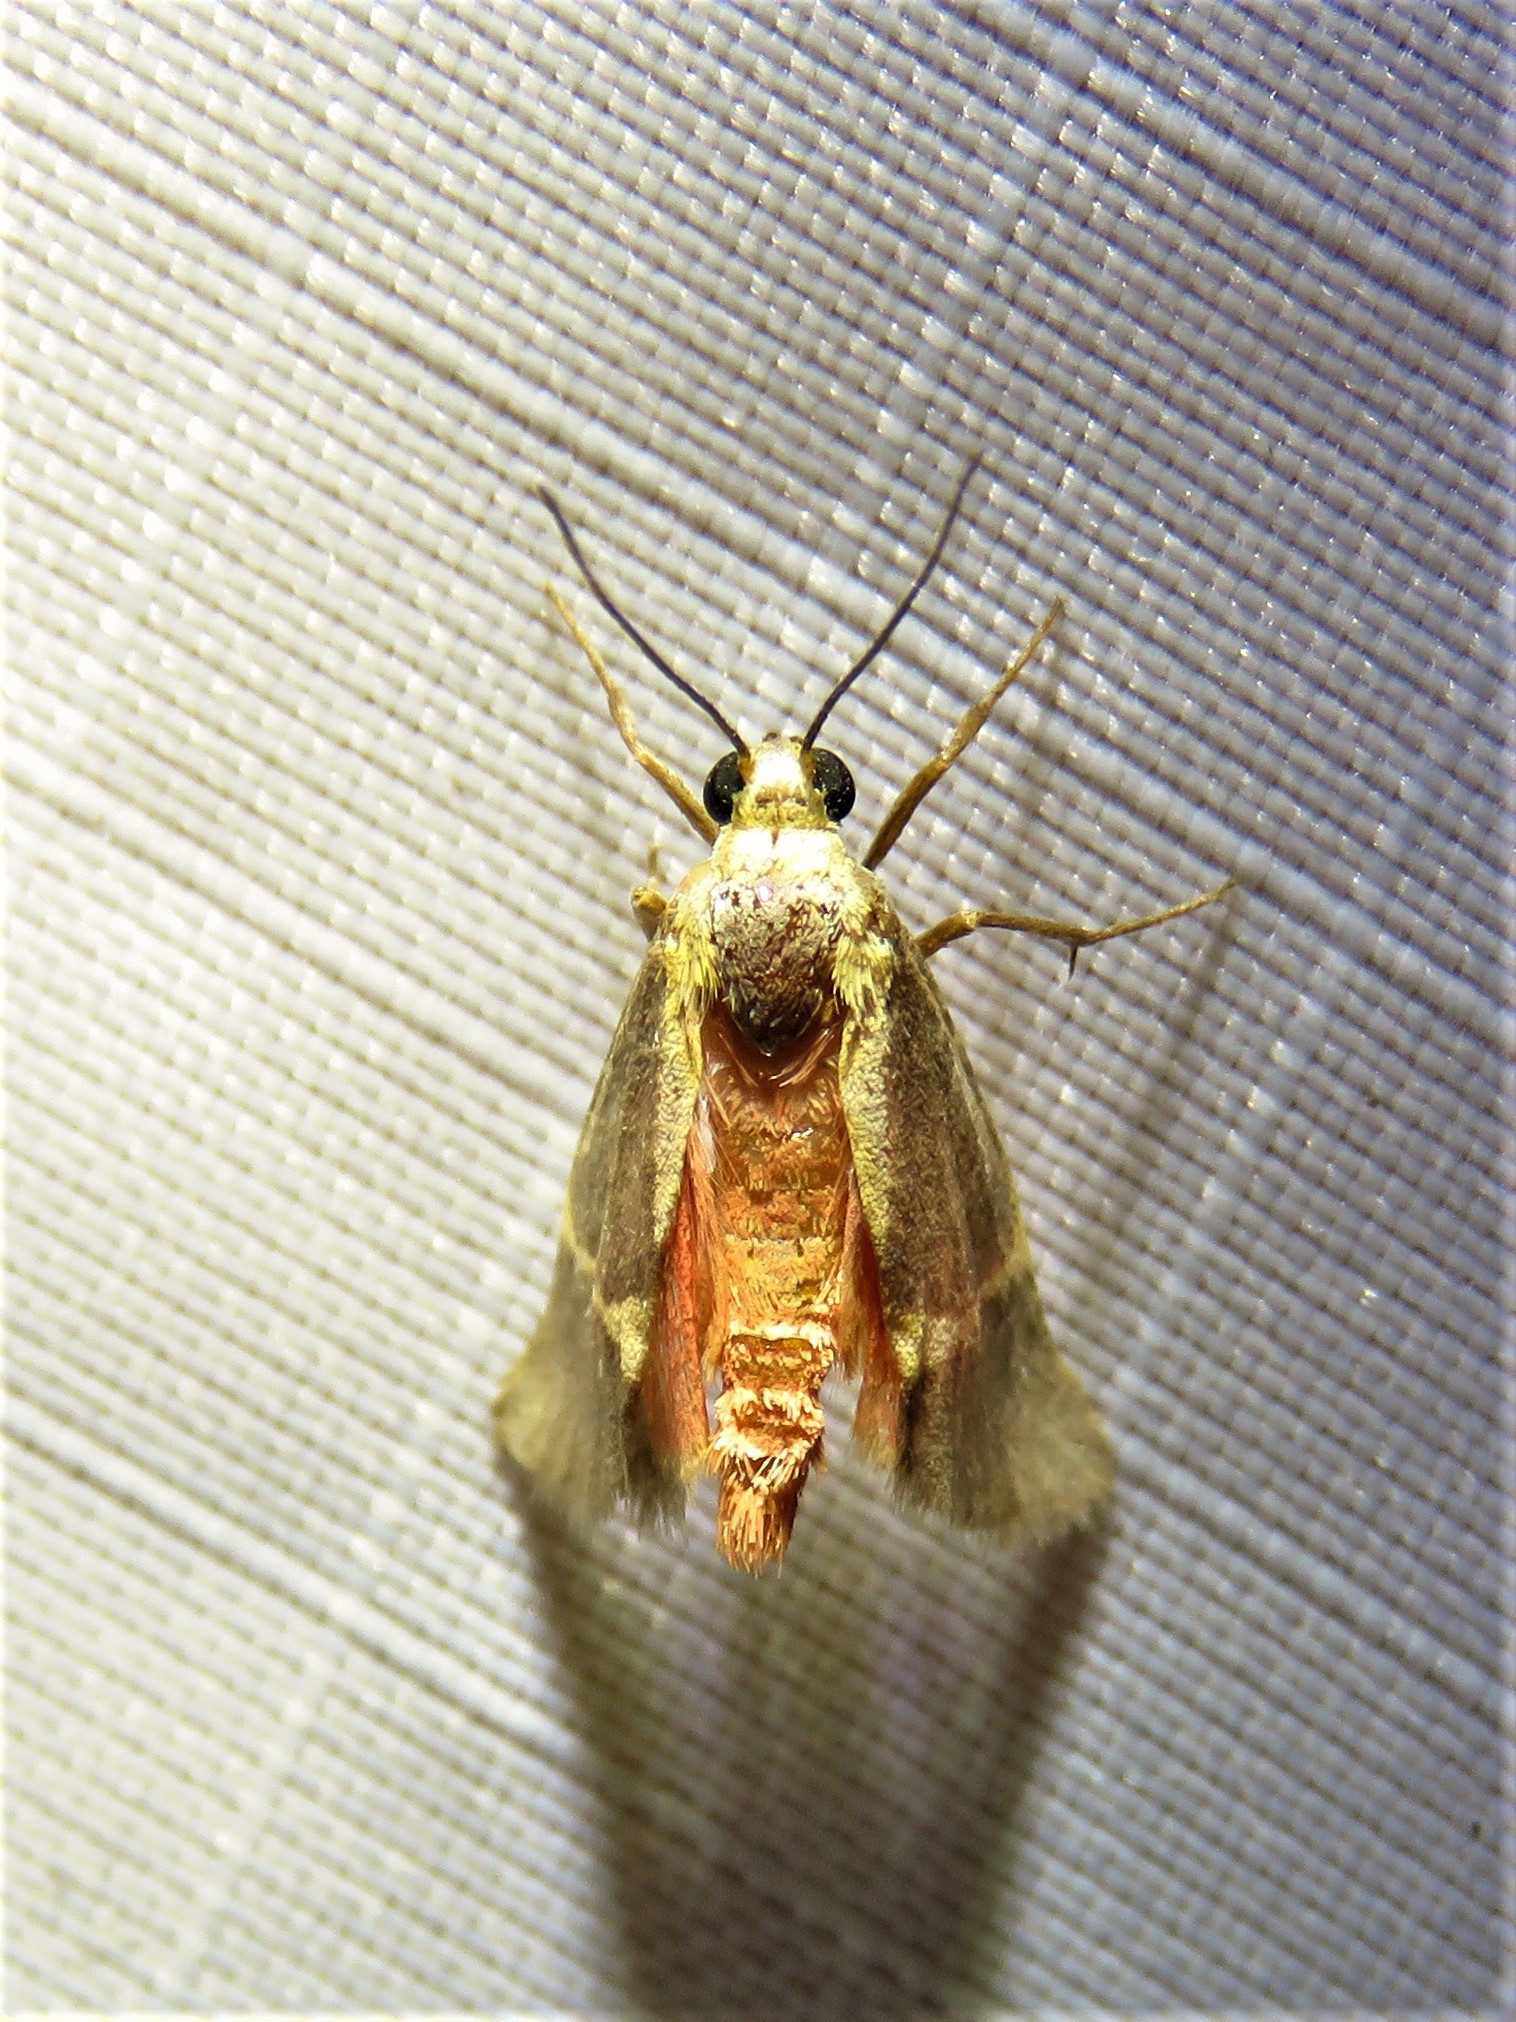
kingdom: Animalia
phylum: Arthropoda
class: Insecta
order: Lepidoptera
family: Erebidae
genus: Cisthene
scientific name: Cisthene tenuifascia
